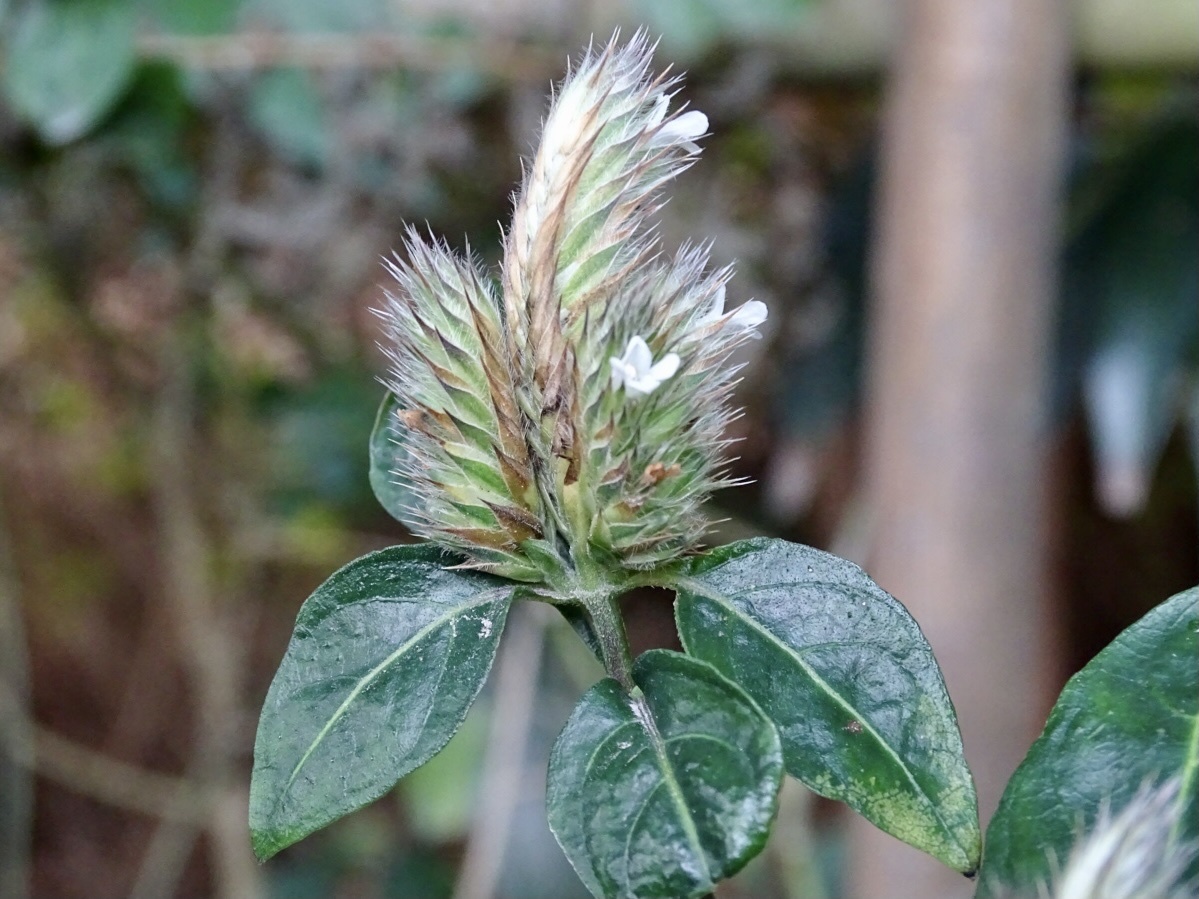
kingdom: Plantae
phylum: Tracheophyta
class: Magnoliopsida
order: Lamiales
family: Acanthaceae
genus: Lepidagathis
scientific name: Lepidagathis incurva
